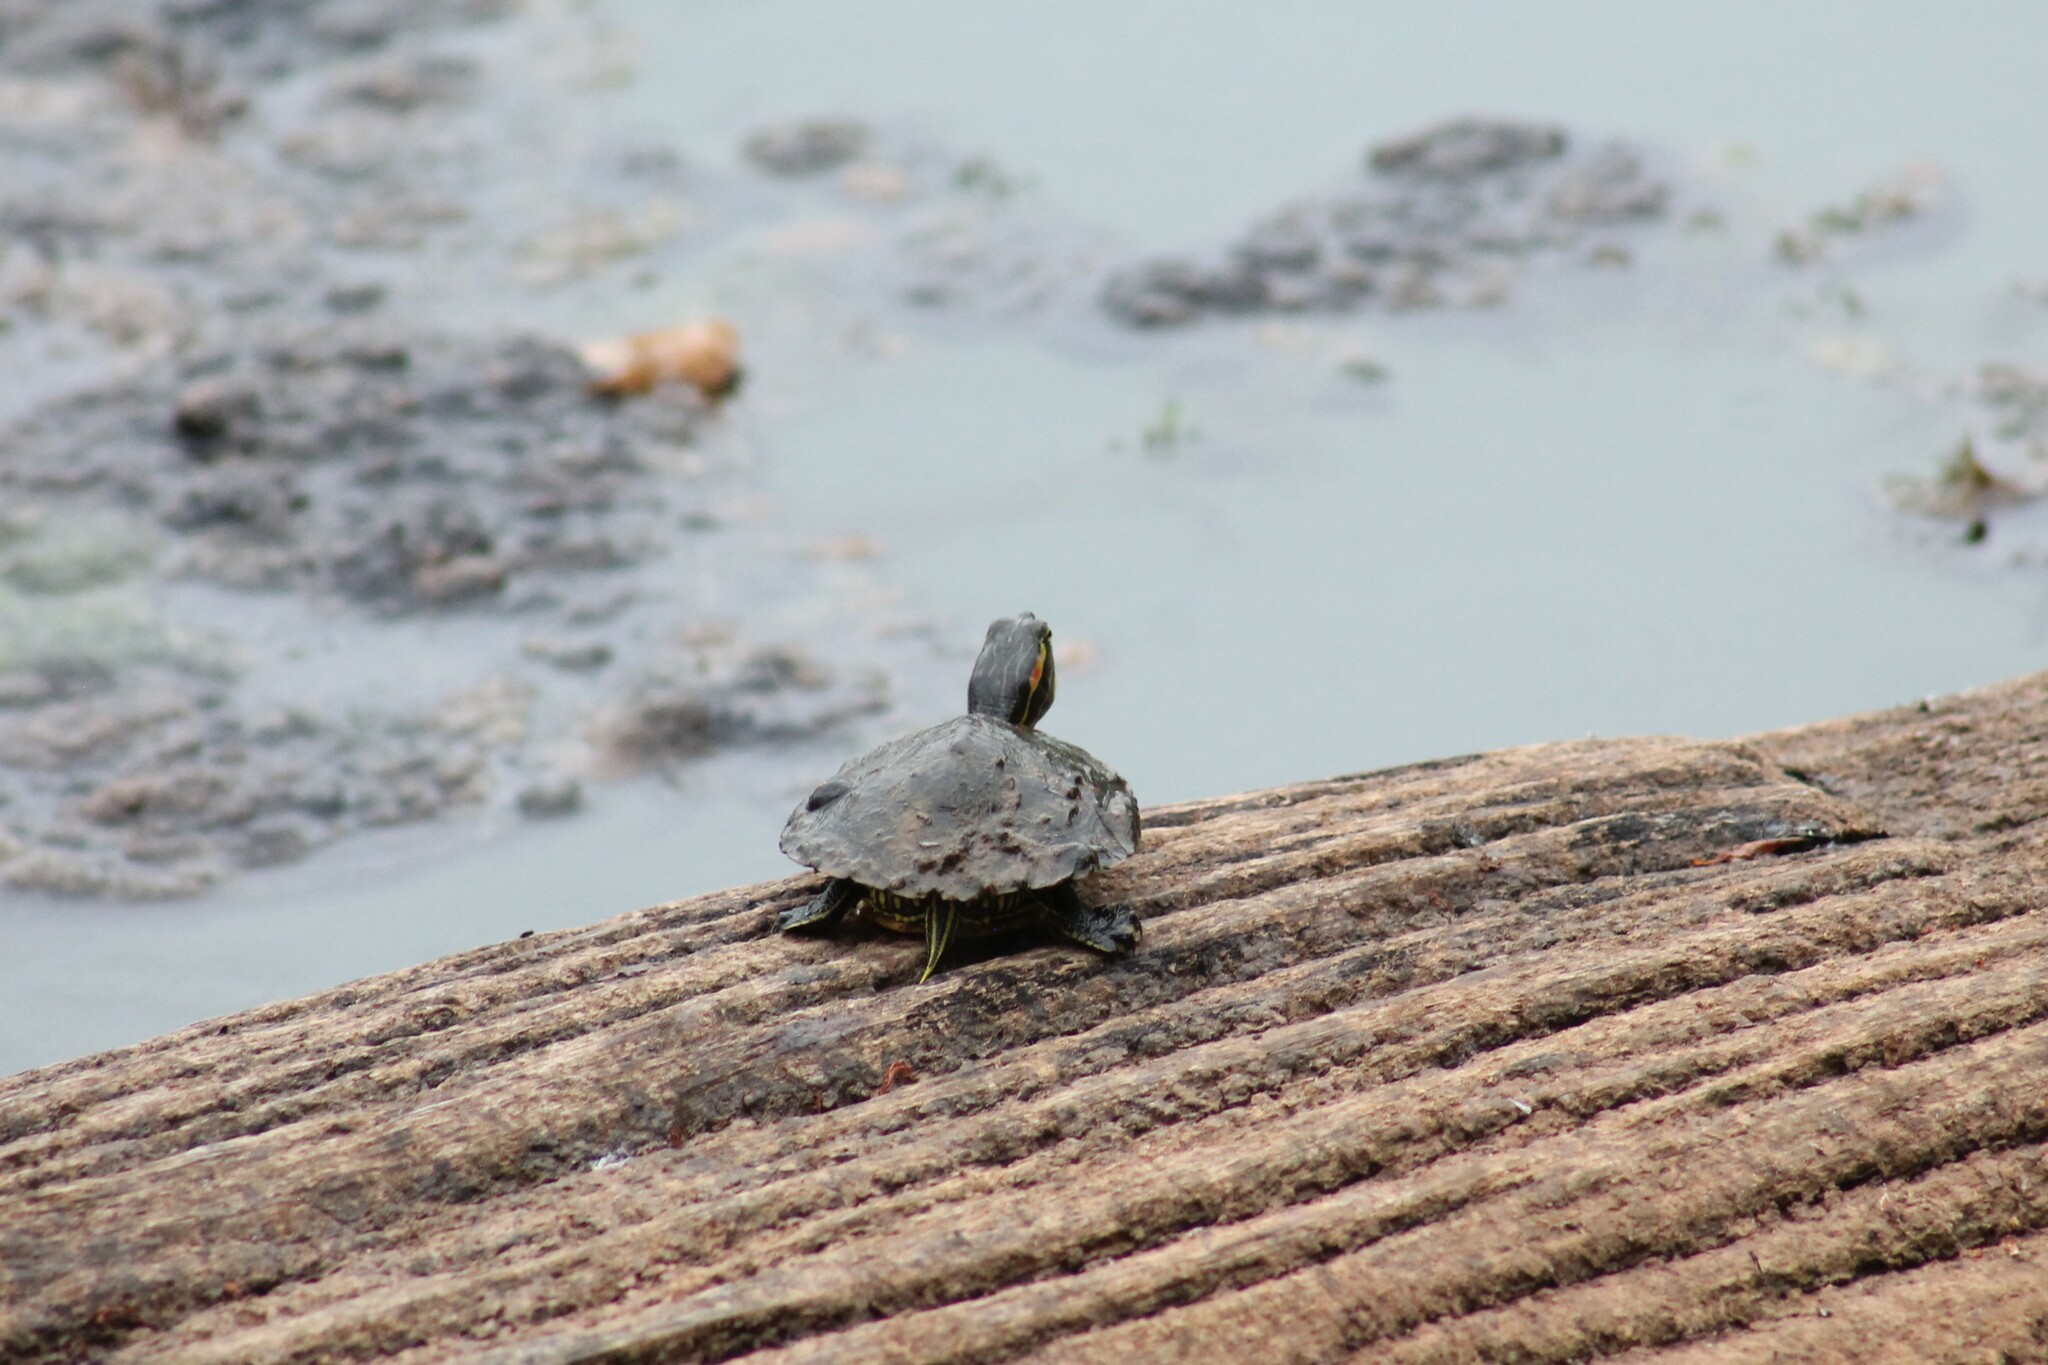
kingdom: Animalia
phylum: Chordata
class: Testudines
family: Emydidae
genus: Trachemys
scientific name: Trachemys scripta
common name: Slider
